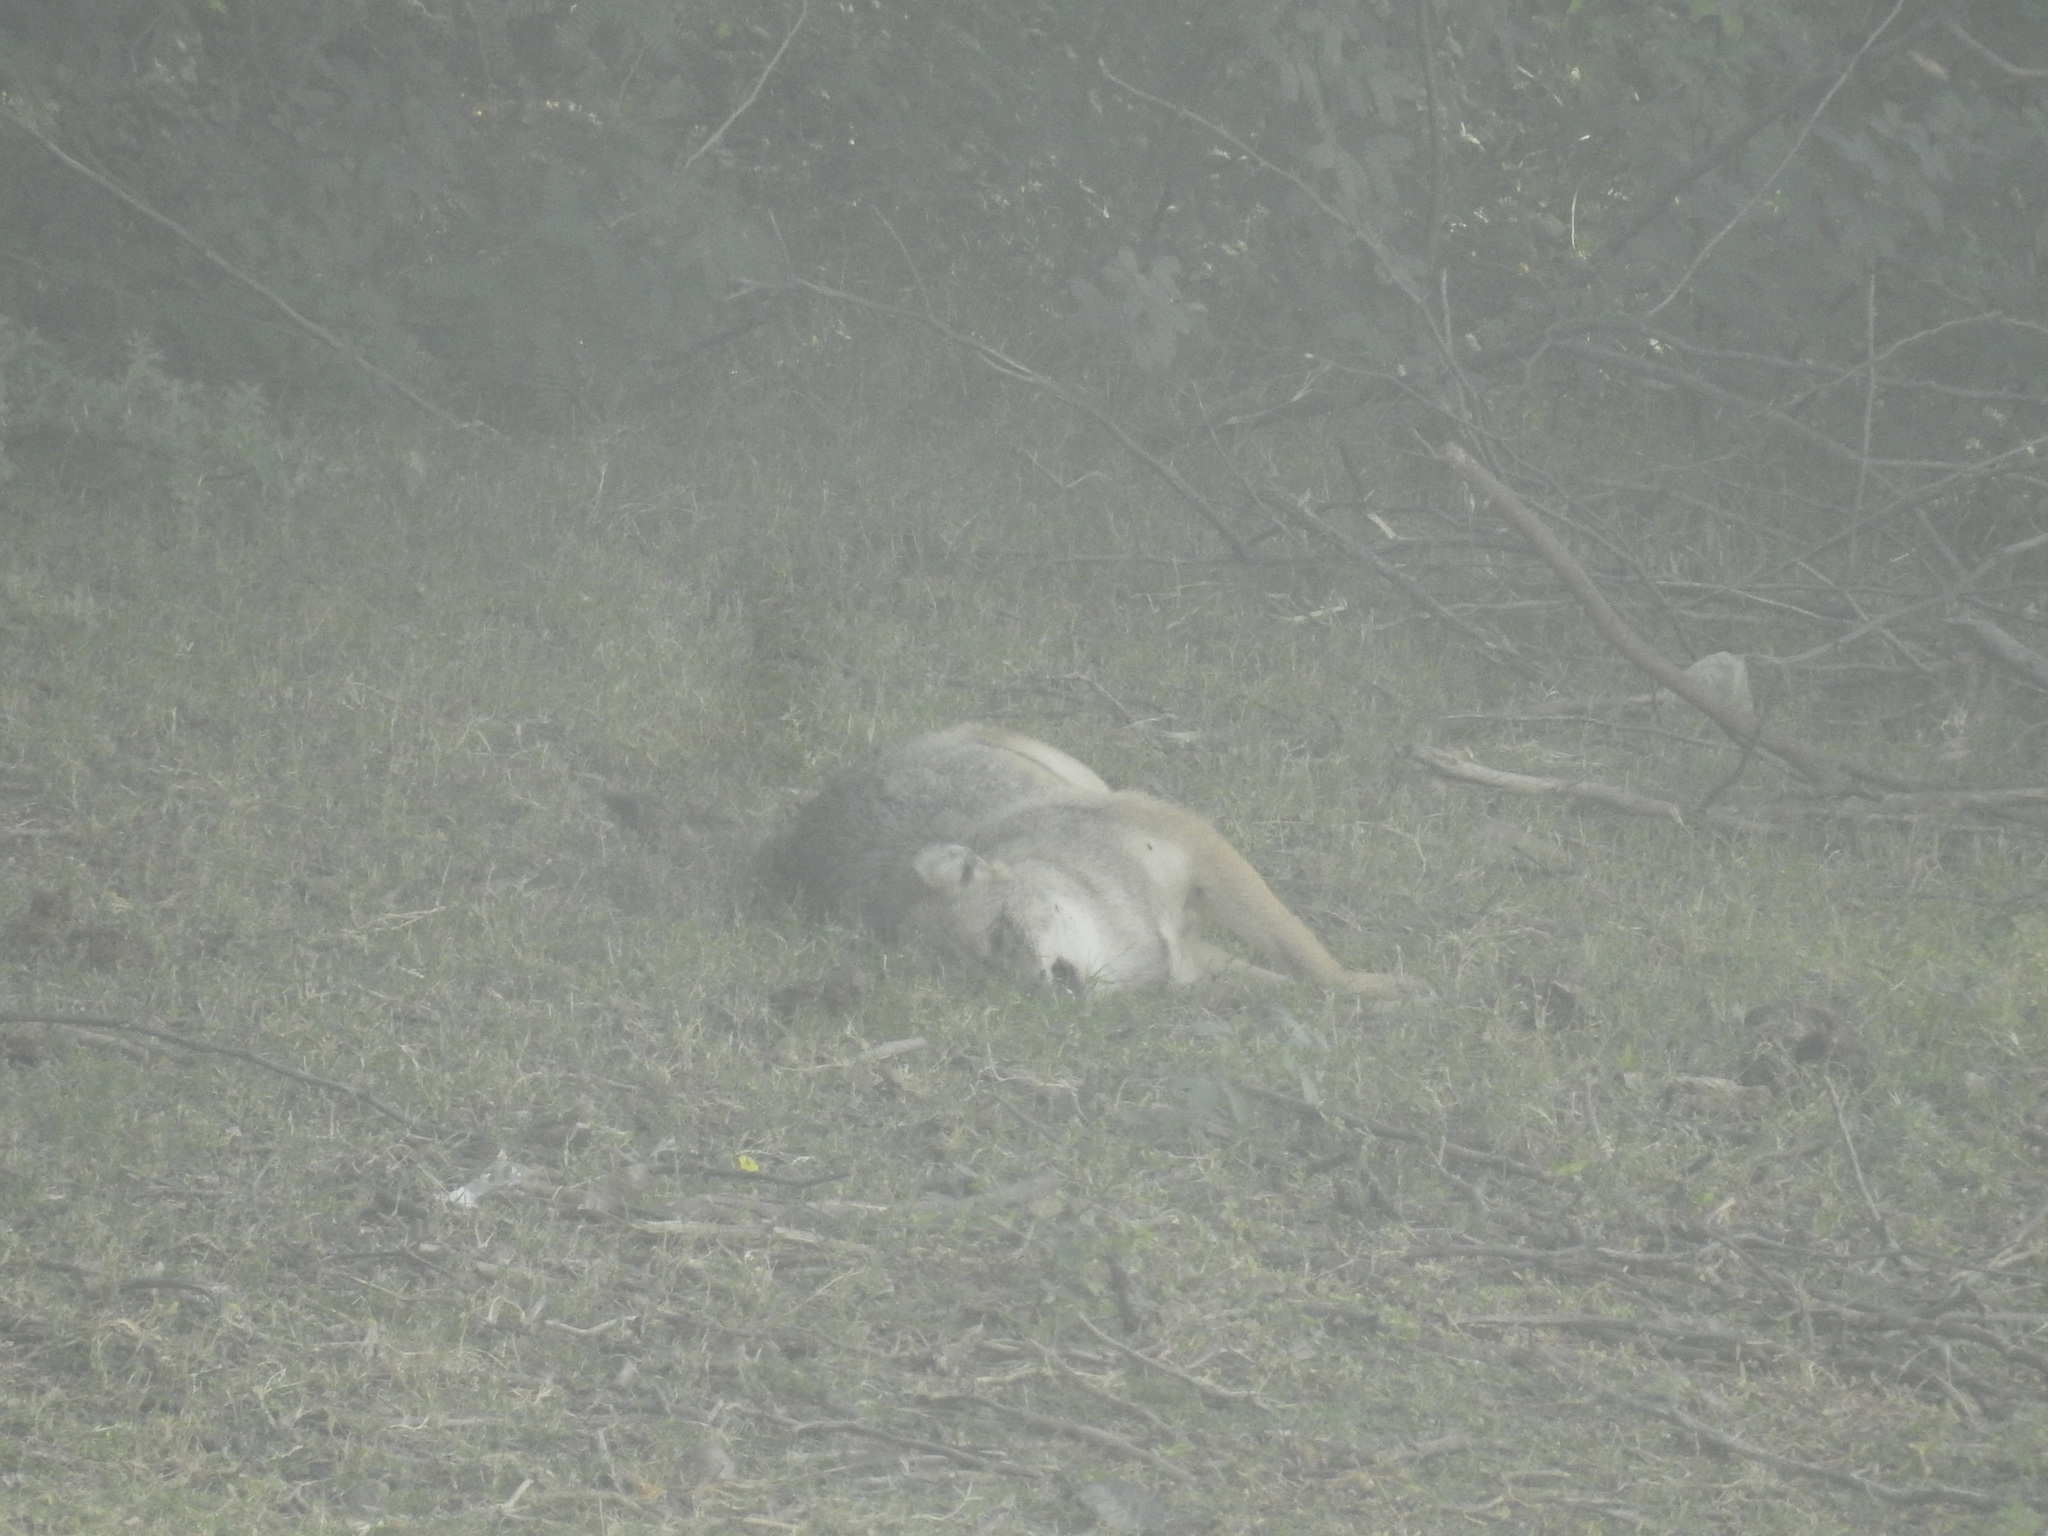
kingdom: Animalia
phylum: Chordata
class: Mammalia
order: Carnivora
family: Canidae
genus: Canis
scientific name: Canis aureus
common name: Golden jackal
